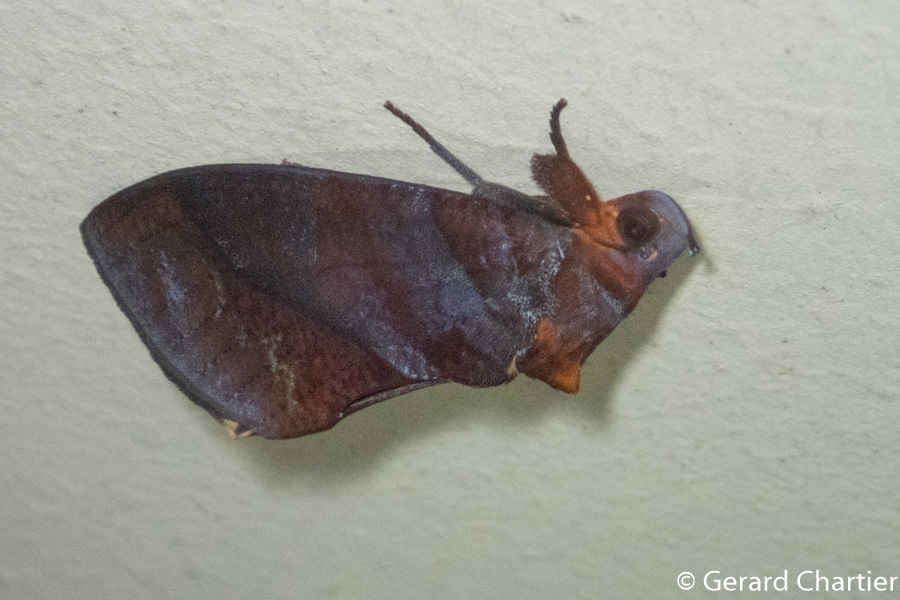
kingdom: Animalia
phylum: Arthropoda
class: Insecta
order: Lepidoptera
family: Erebidae
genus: Eudocima
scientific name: Eudocima homaena
